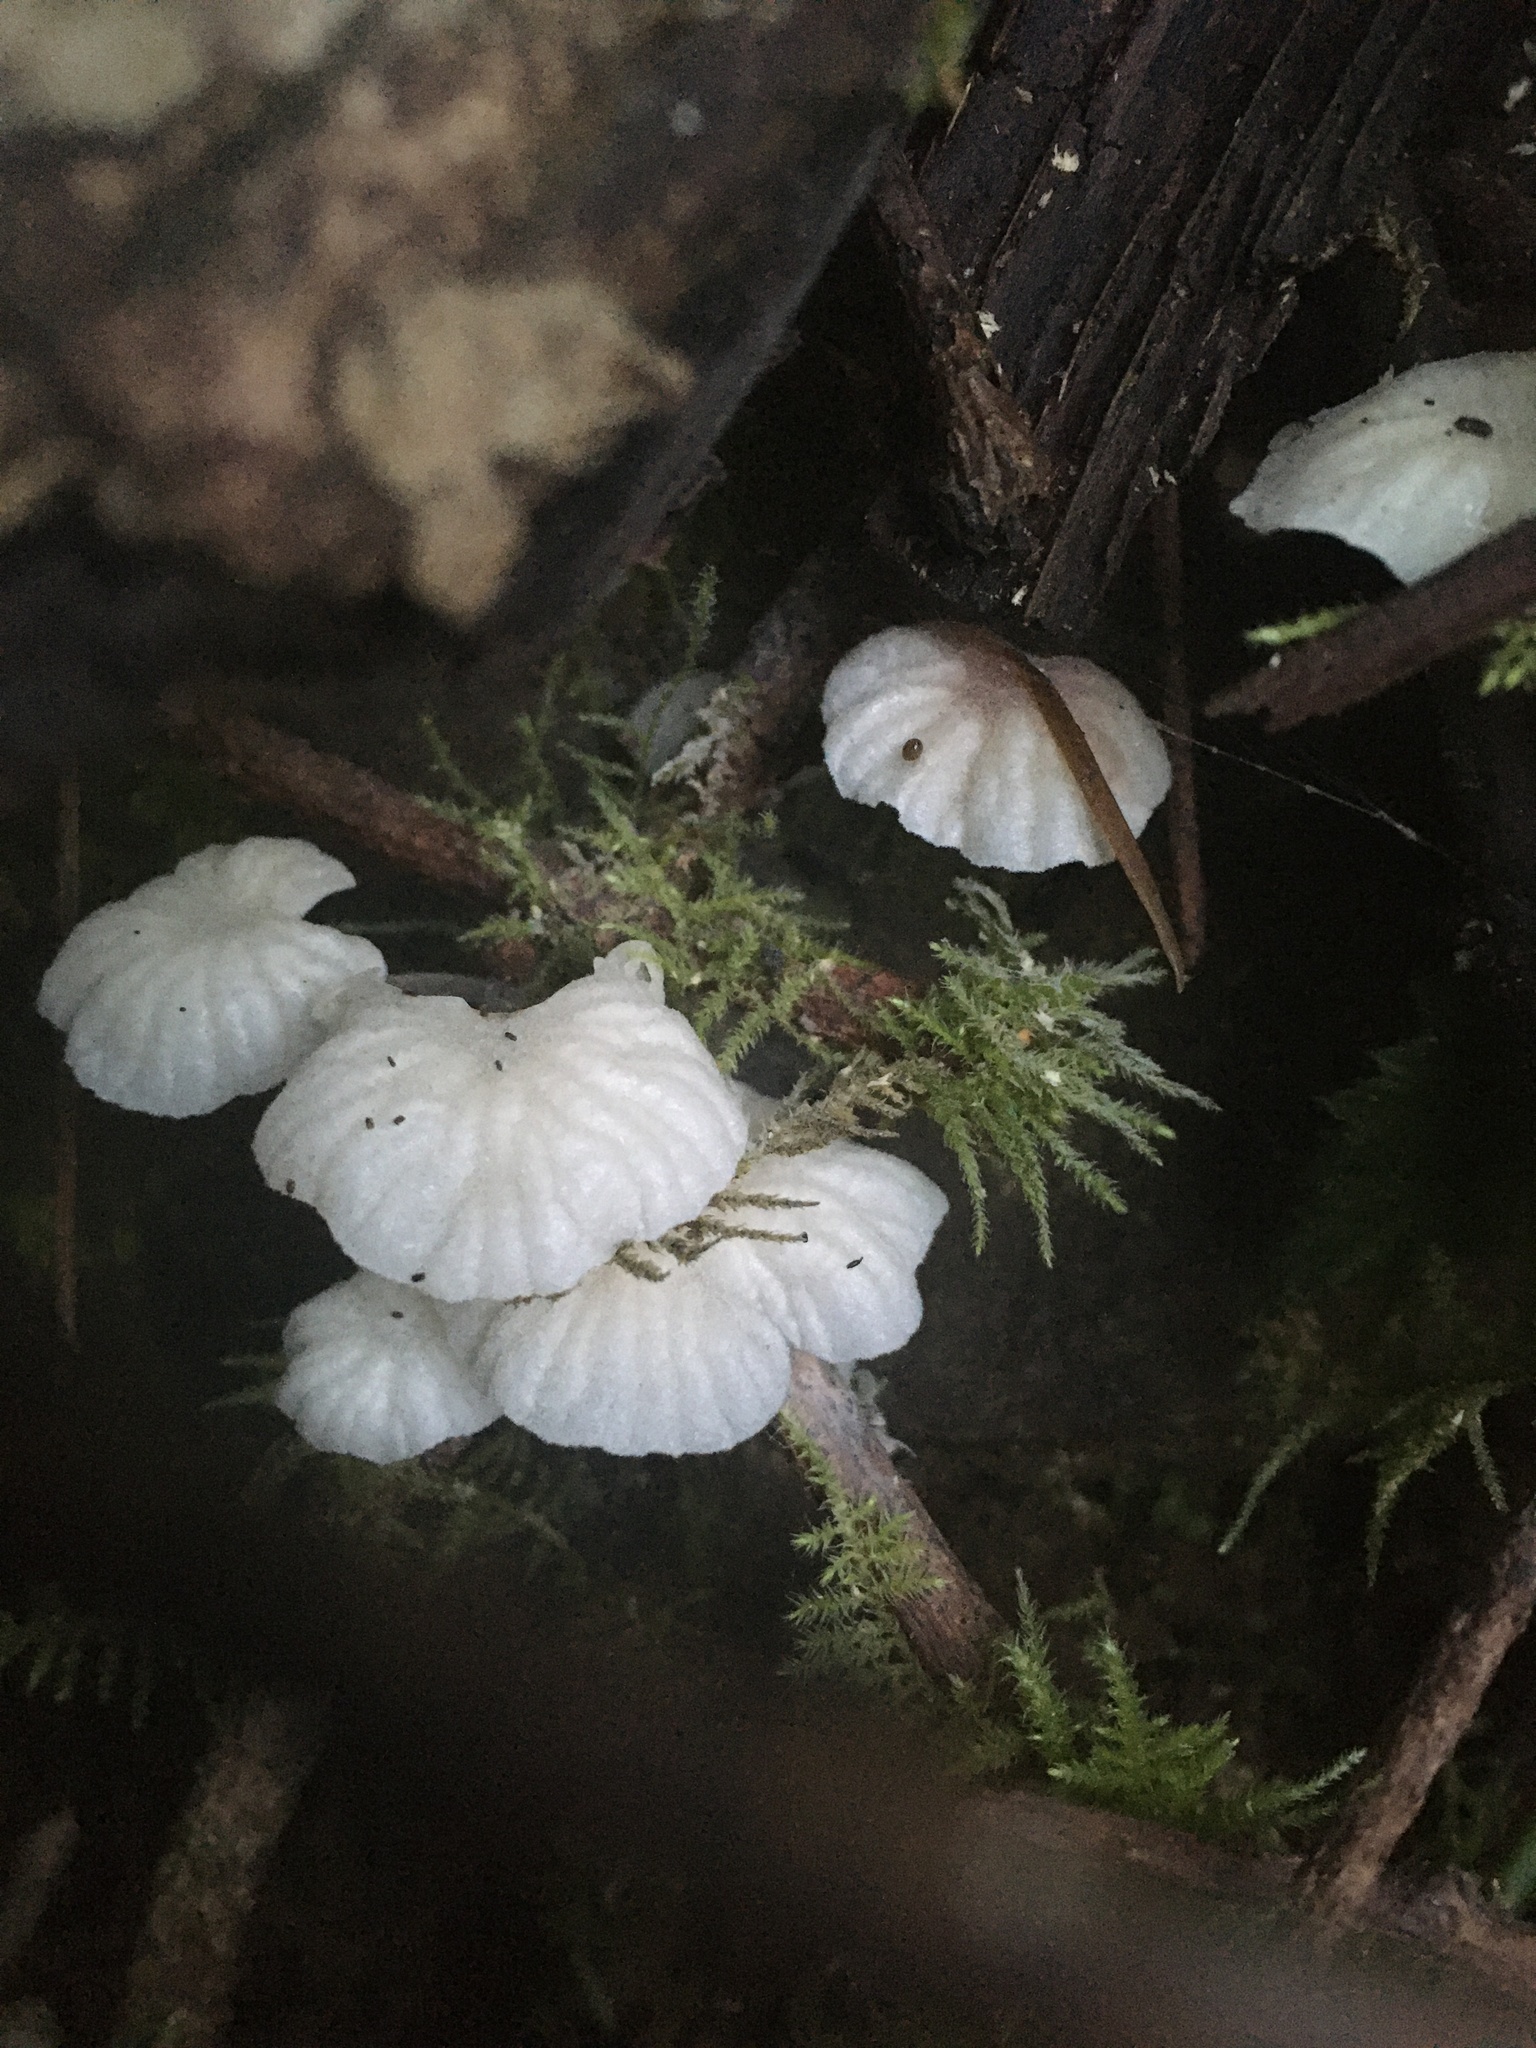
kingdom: Fungi
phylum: Basidiomycota
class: Agaricomycetes
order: Agaricales
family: Omphalotaceae
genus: Marasmiellus
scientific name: Marasmiellus candidus
